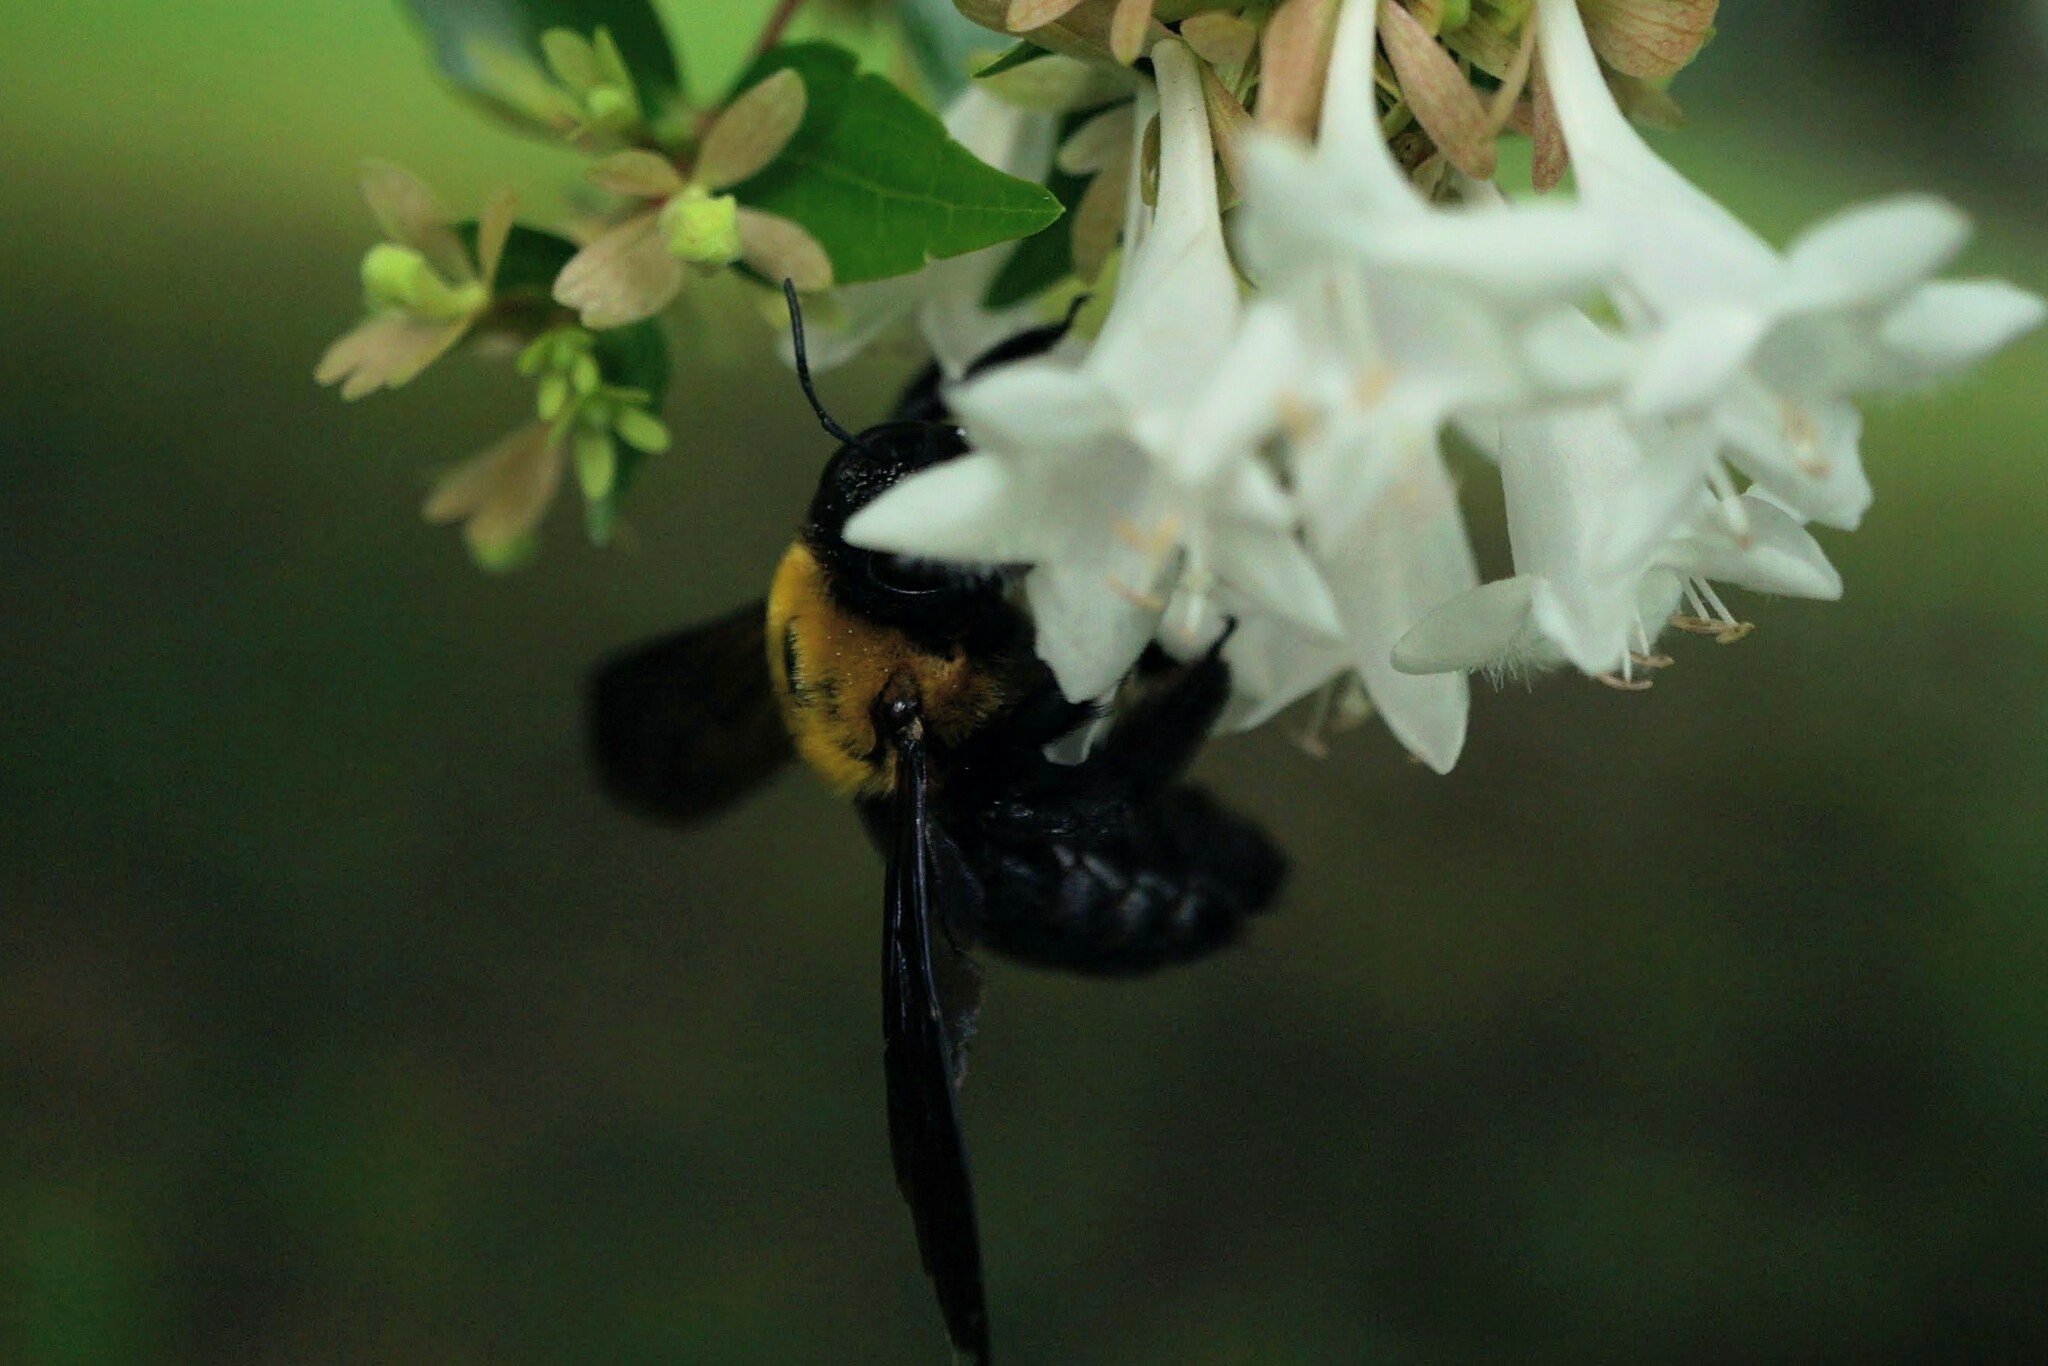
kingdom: Animalia
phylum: Arthropoda
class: Insecta
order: Hymenoptera
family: Apidae
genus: Xylocopa
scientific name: Xylocopa appendiculata
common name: Japanese carpenter bee
